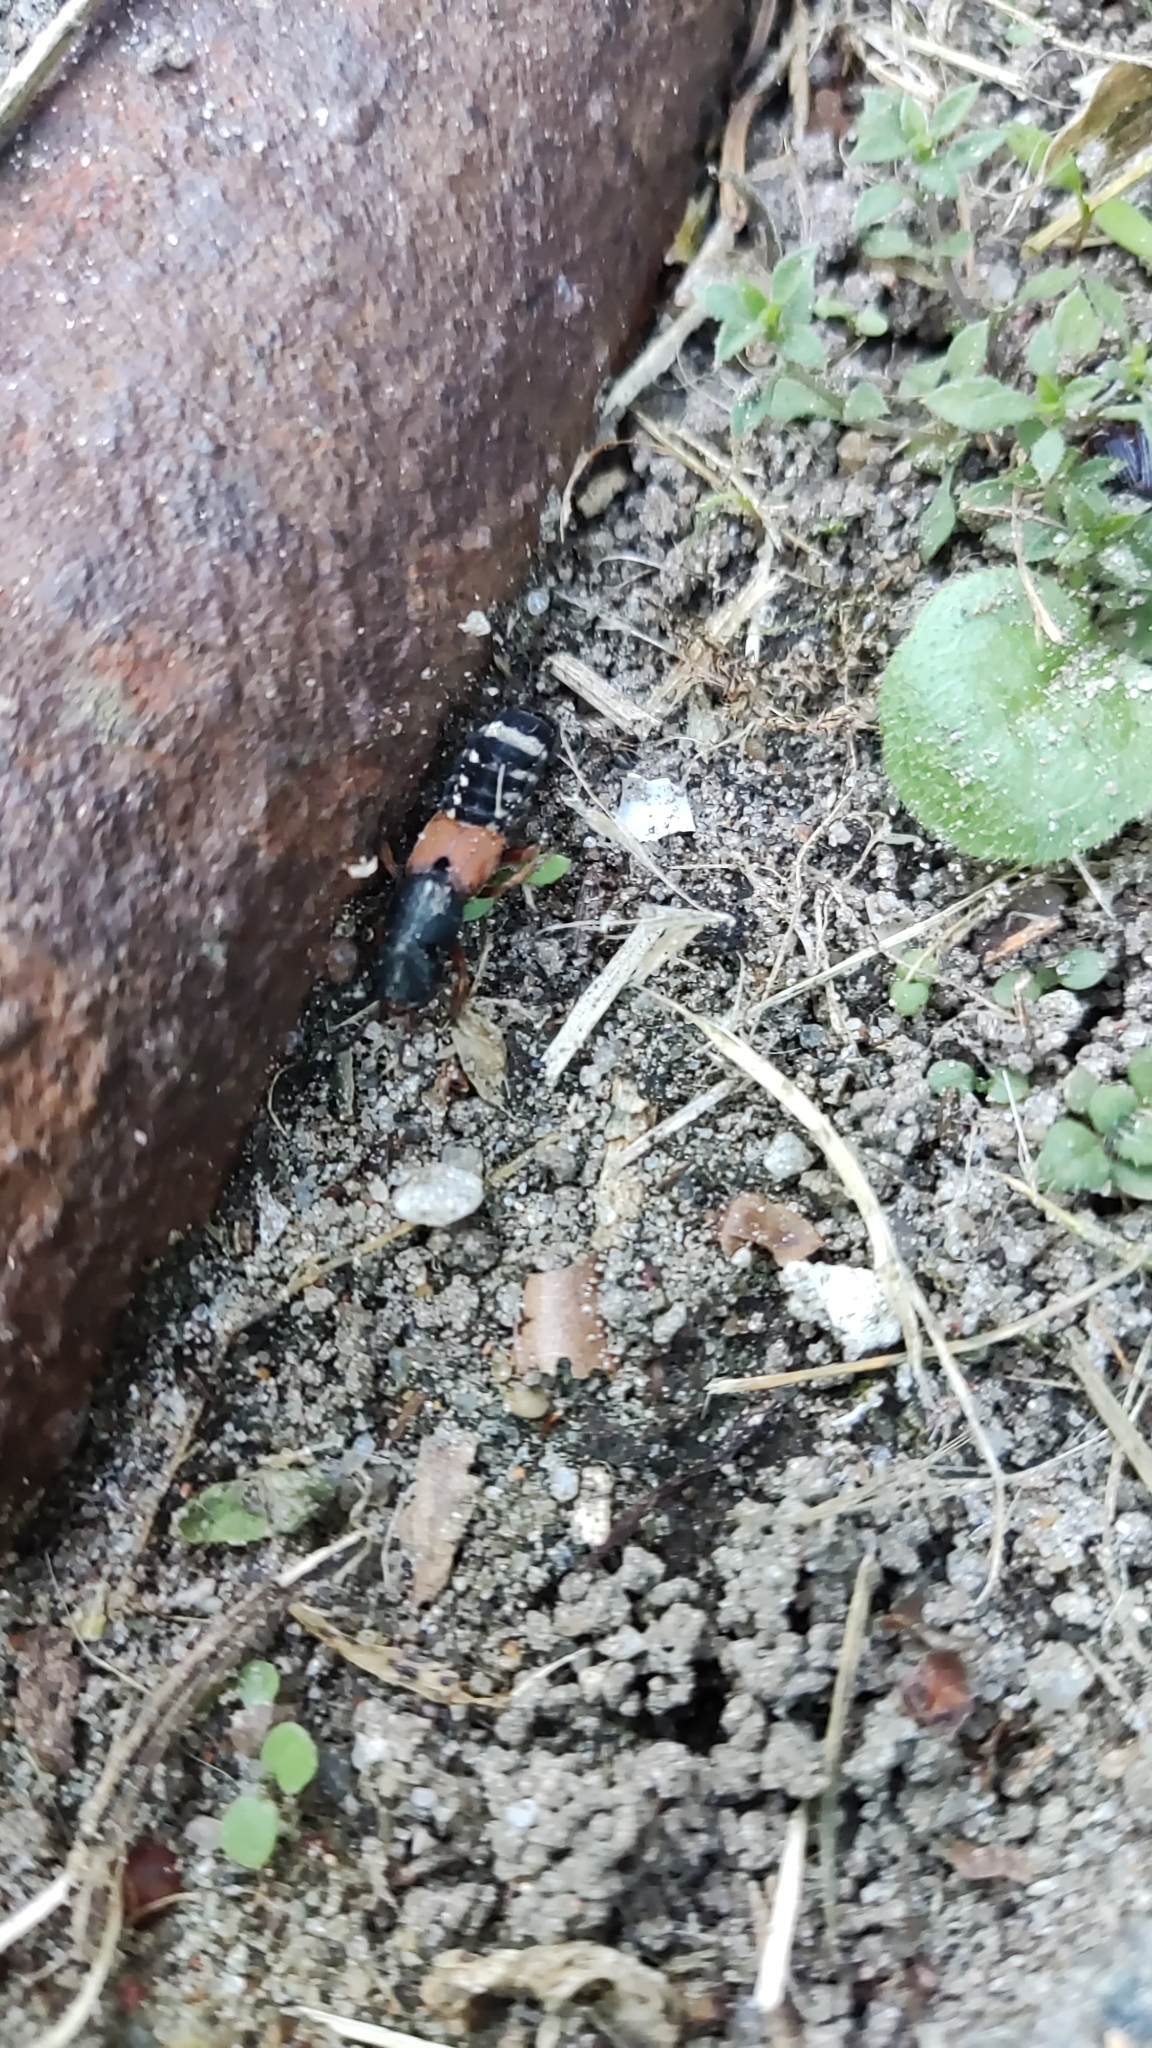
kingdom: Animalia
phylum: Arthropoda
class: Insecta
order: Coleoptera
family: Staphylinidae
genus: Platydracus
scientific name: Platydracus stercorarius
